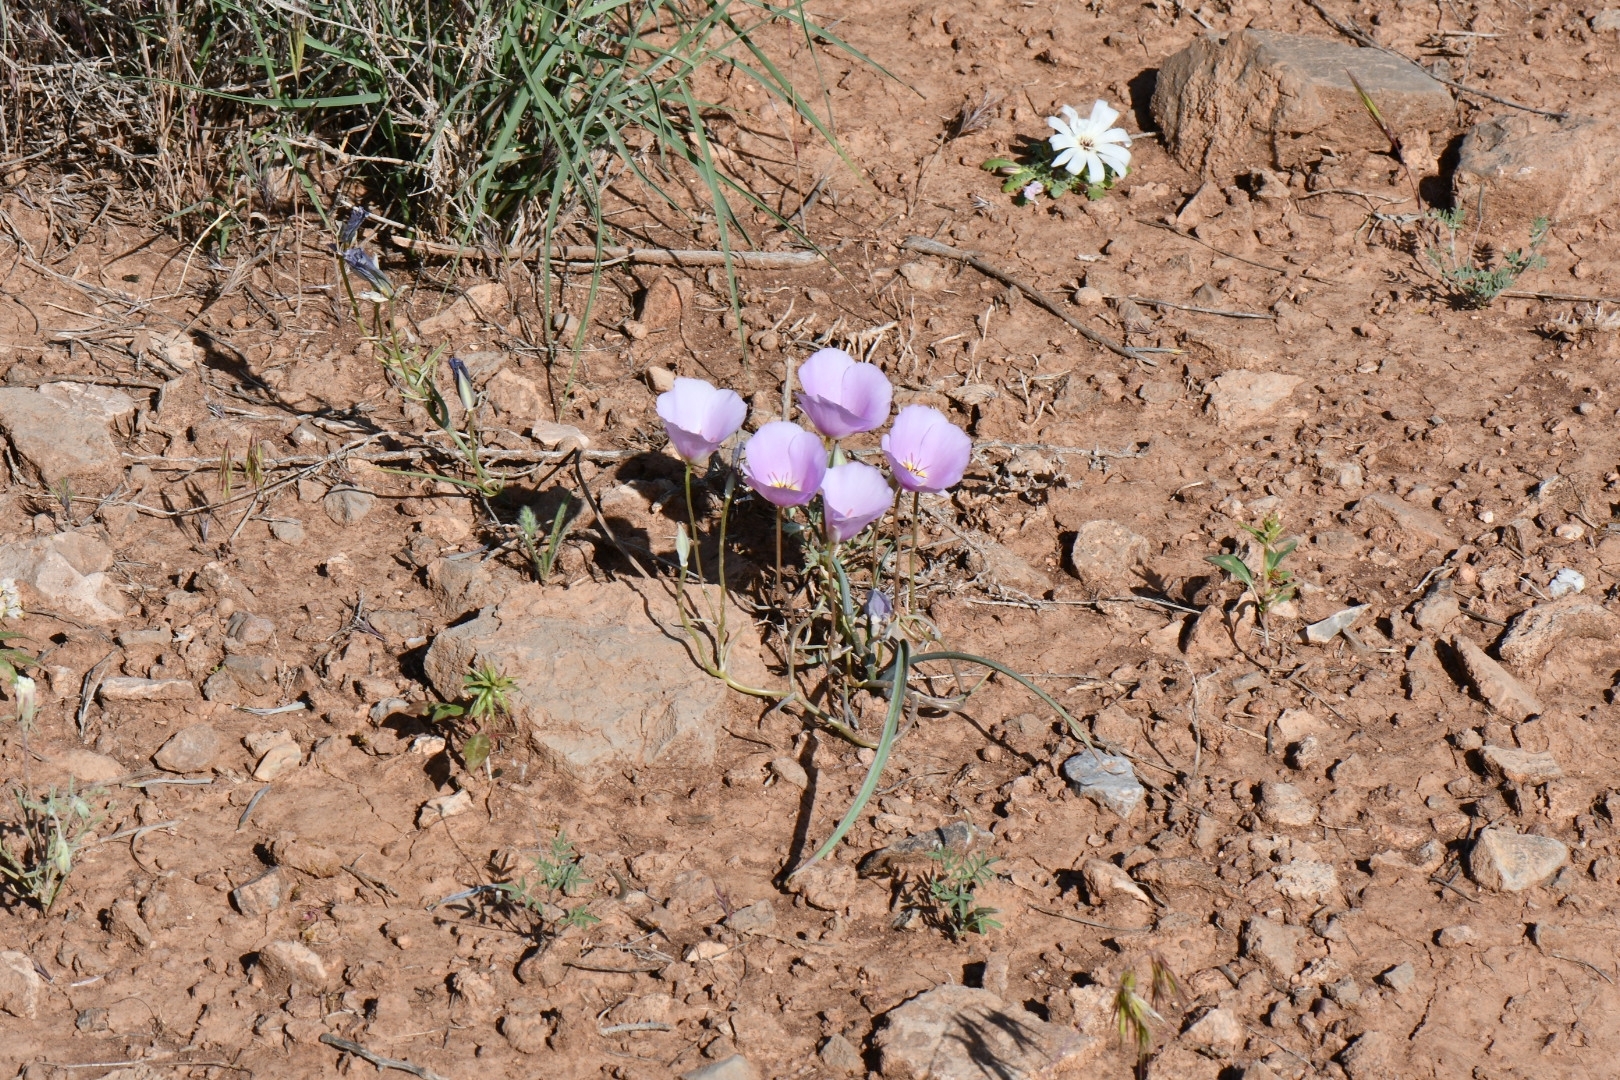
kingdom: Plantae
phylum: Tracheophyta
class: Liliopsida
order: Liliales
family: Liliaceae
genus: Calochortus
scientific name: Calochortus flexuosus
